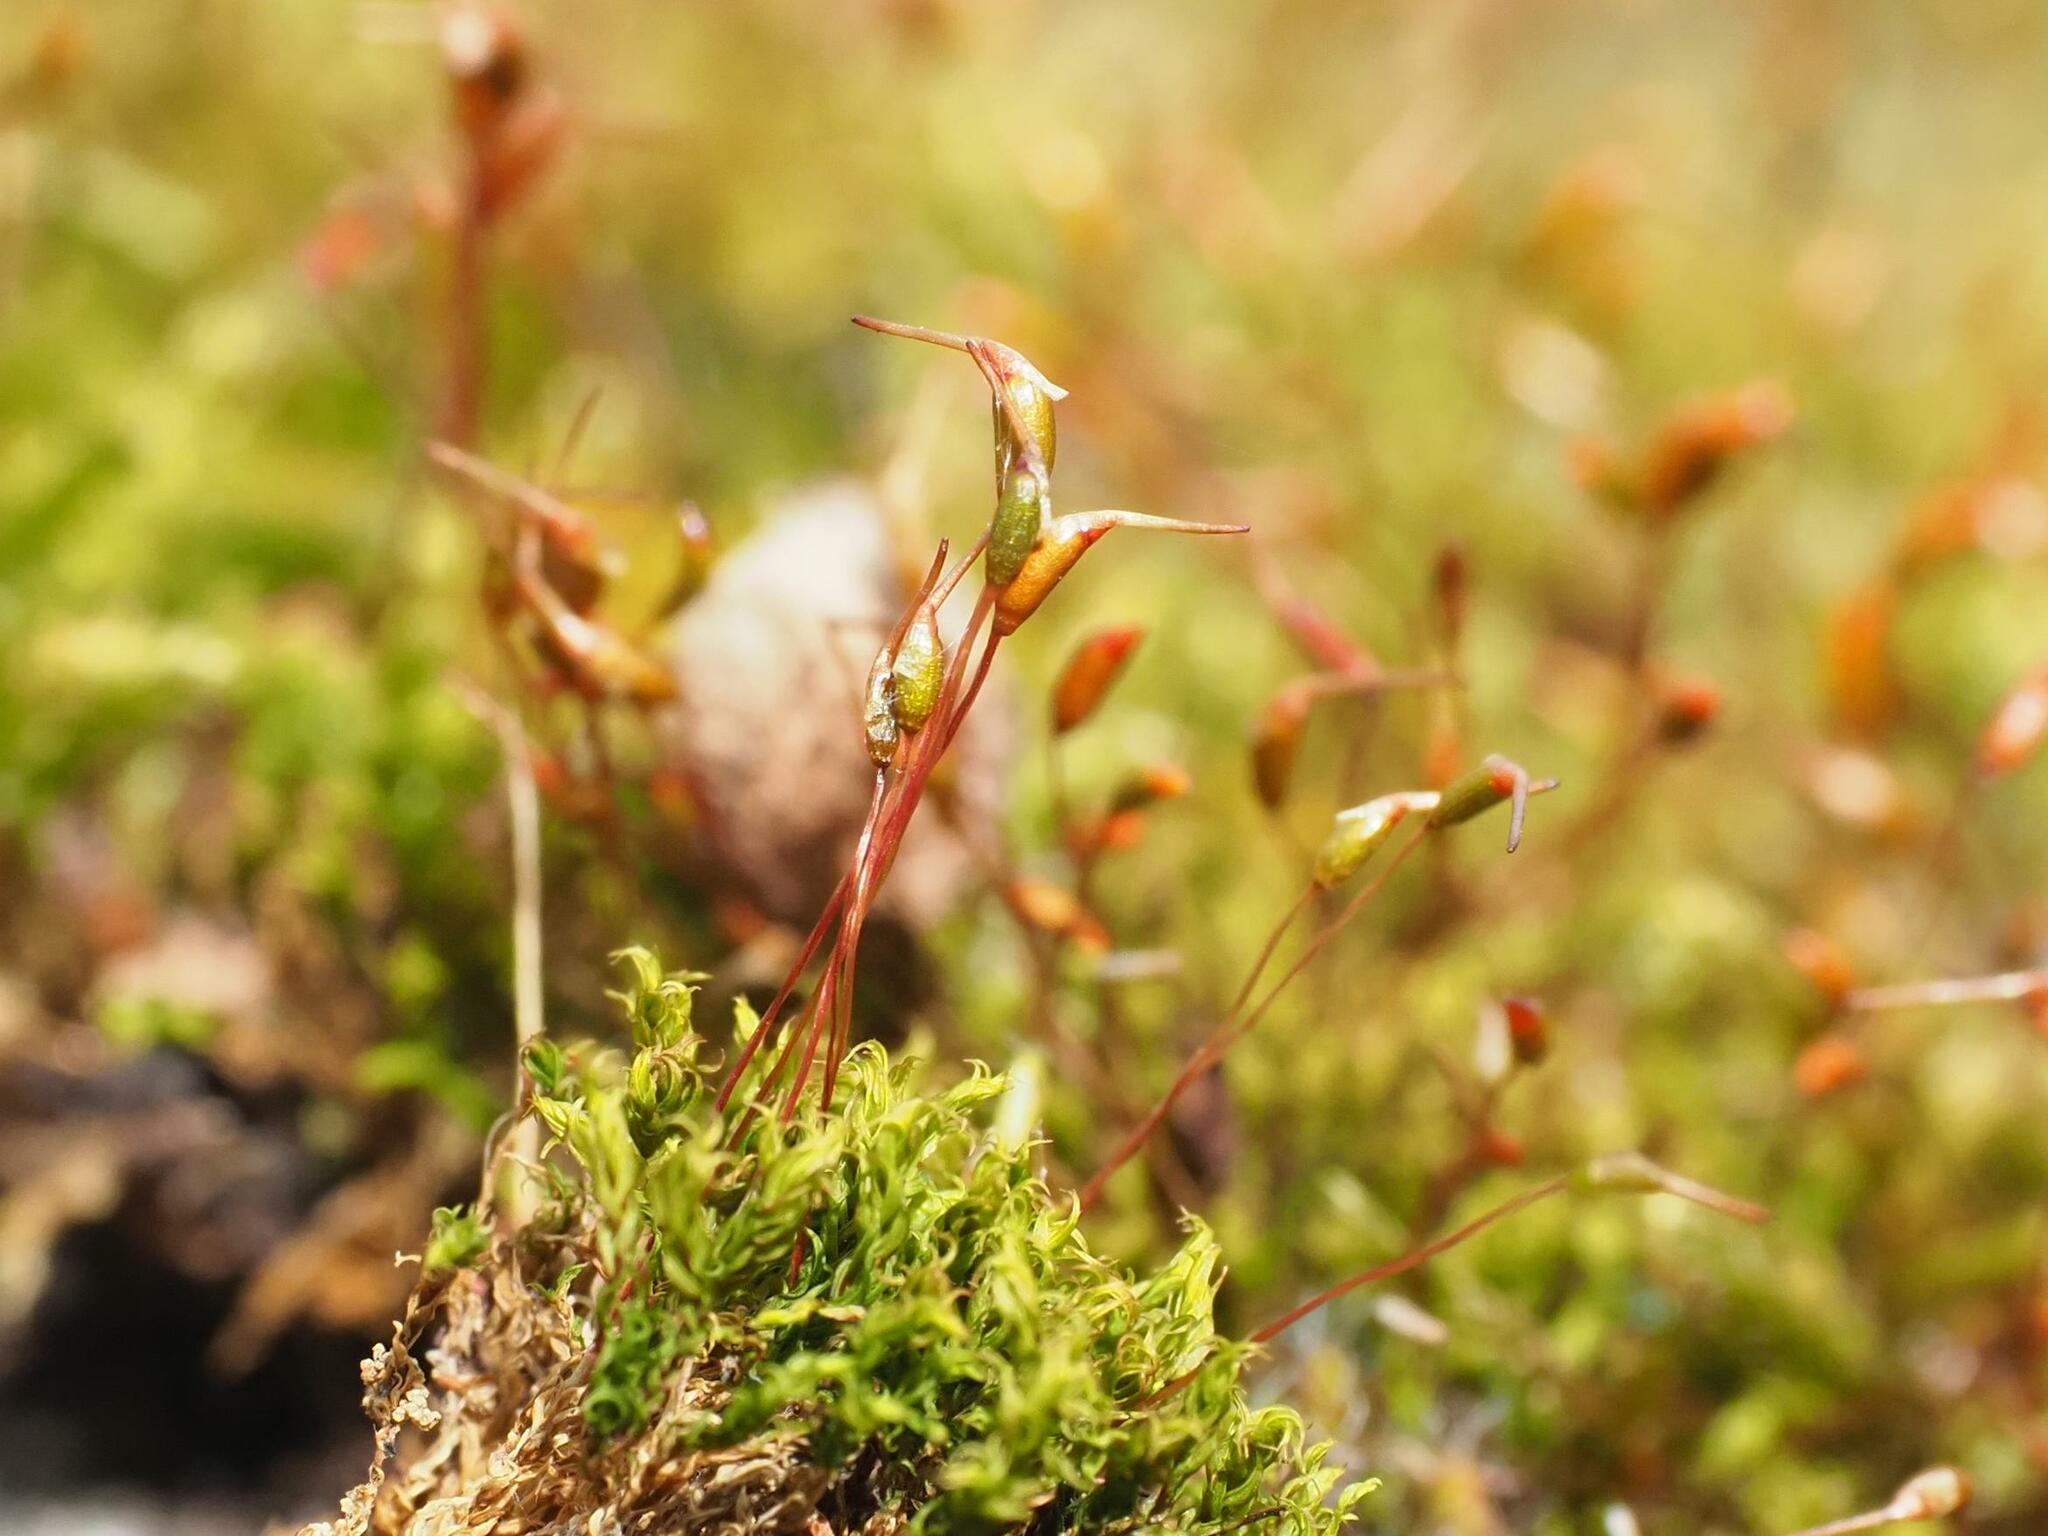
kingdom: Plantae
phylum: Bryophyta
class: Bryopsida
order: Dicranales
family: Ditrichaceae
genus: Ceratodon
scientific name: Ceratodon purpureus
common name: Redshank
